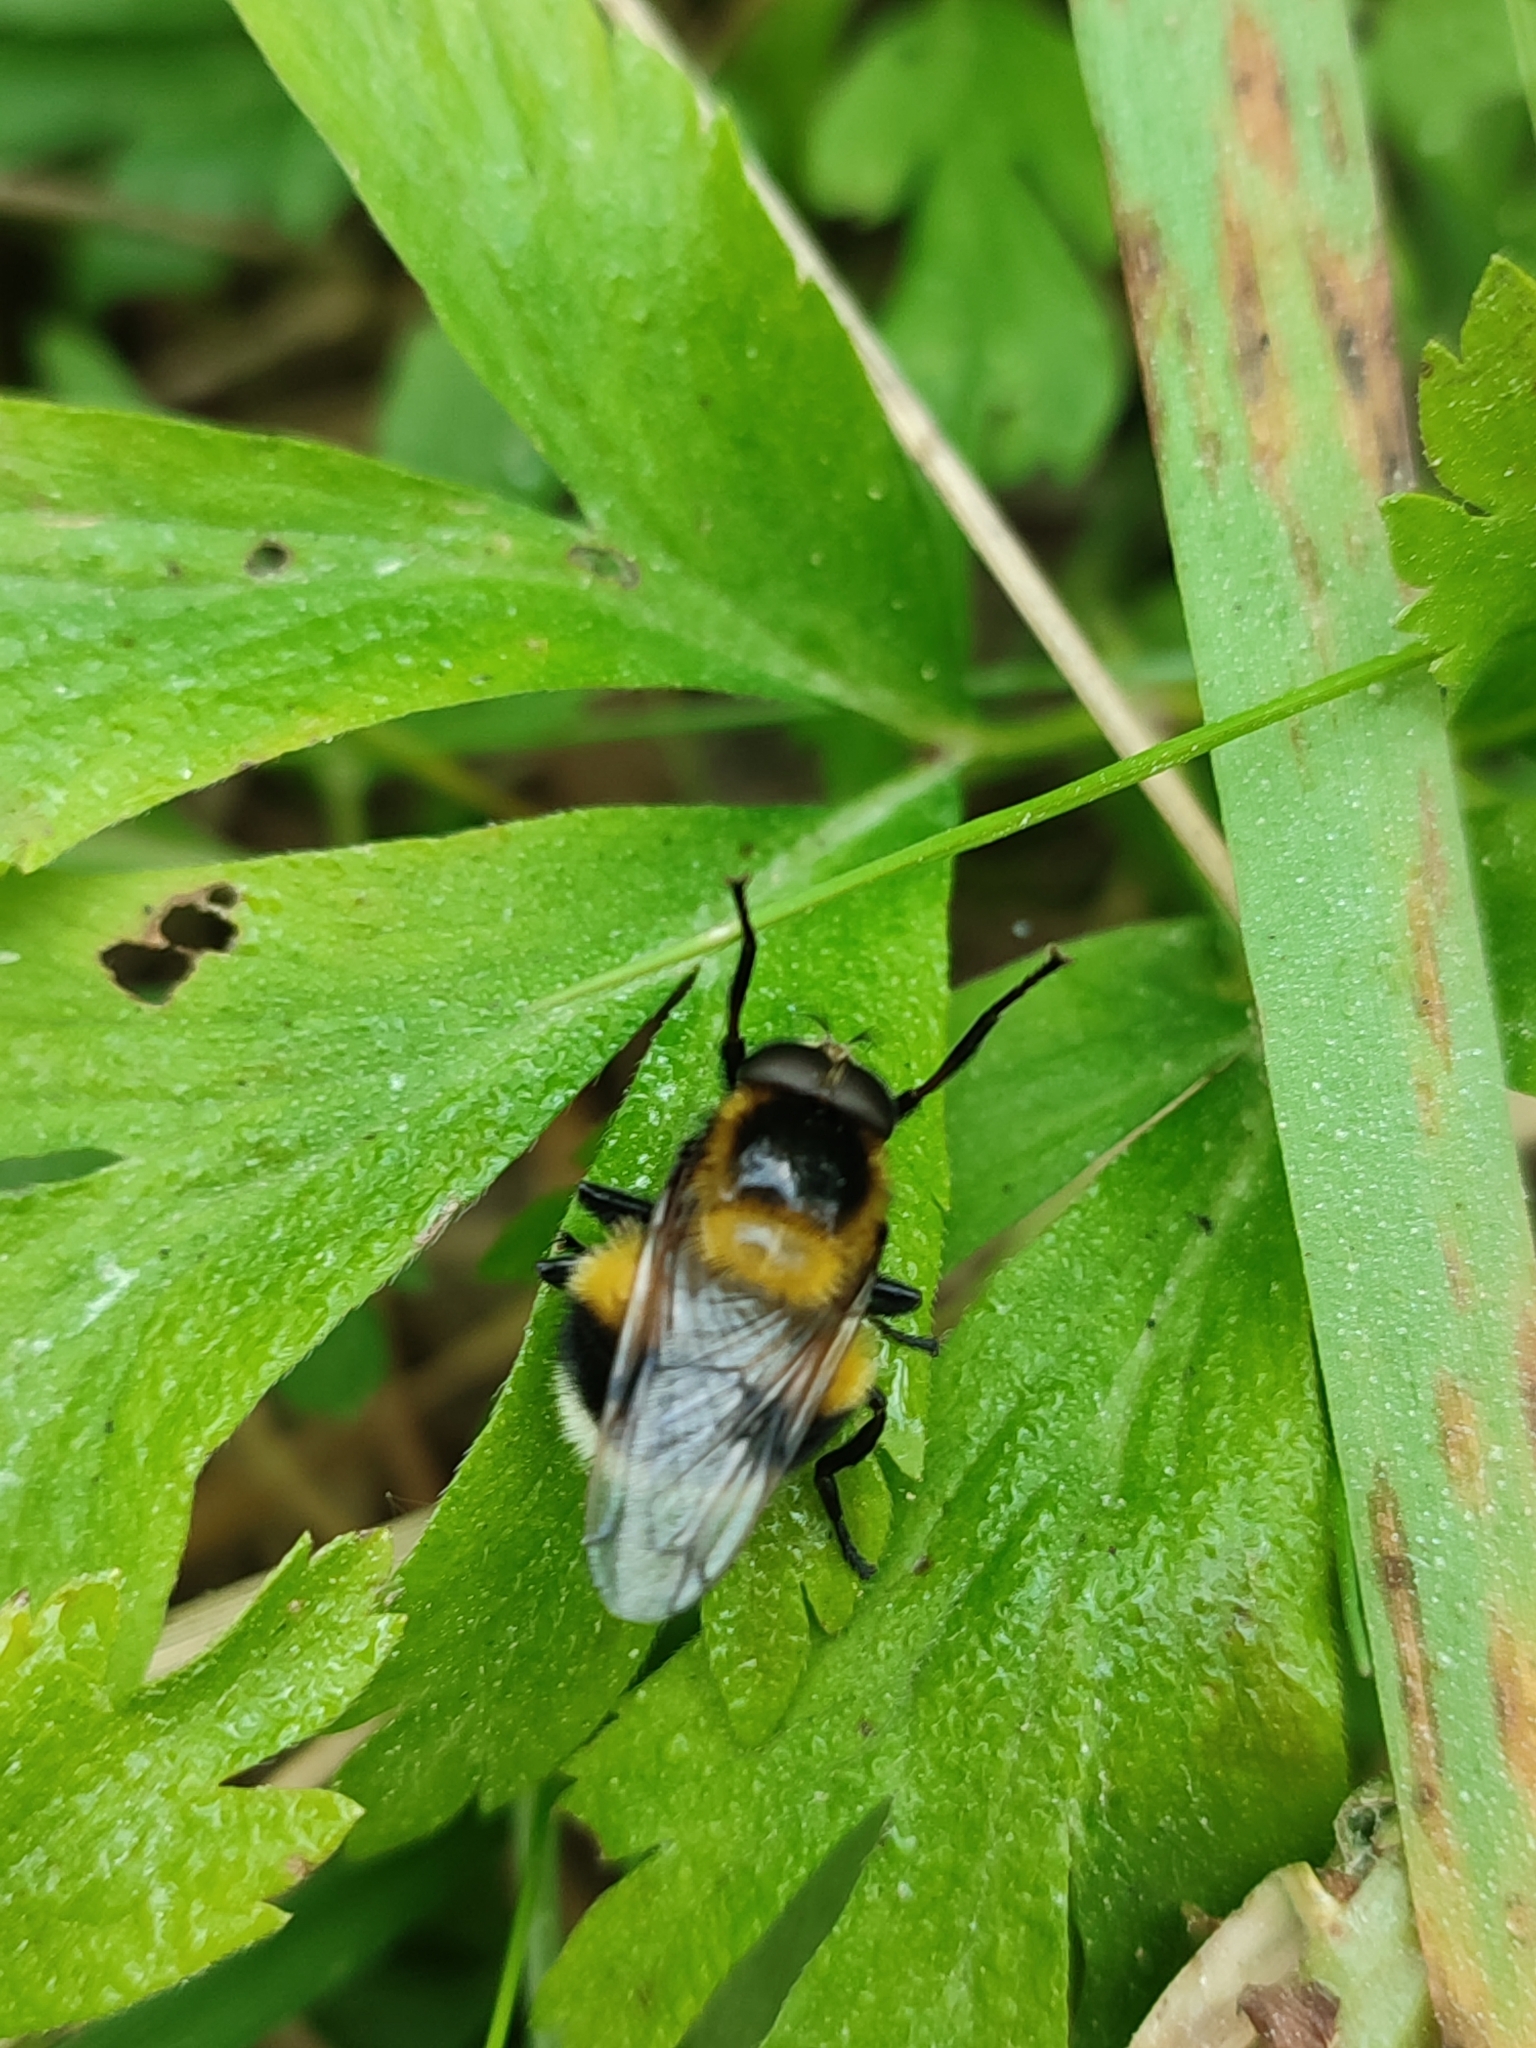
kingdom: Animalia
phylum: Arthropoda
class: Insecta
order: Diptera
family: Syrphidae
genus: Volucella
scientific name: Volucella bombylans
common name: Bumble bee hover fly
